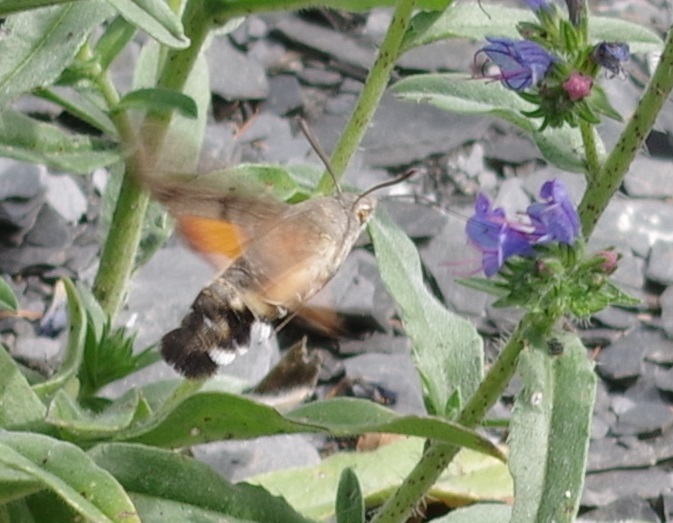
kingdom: Animalia
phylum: Arthropoda
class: Insecta
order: Lepidoptera
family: Sphingidae
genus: Macroglossum
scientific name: Macroglossum stellatarum
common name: Humming-bird hawk-moth
